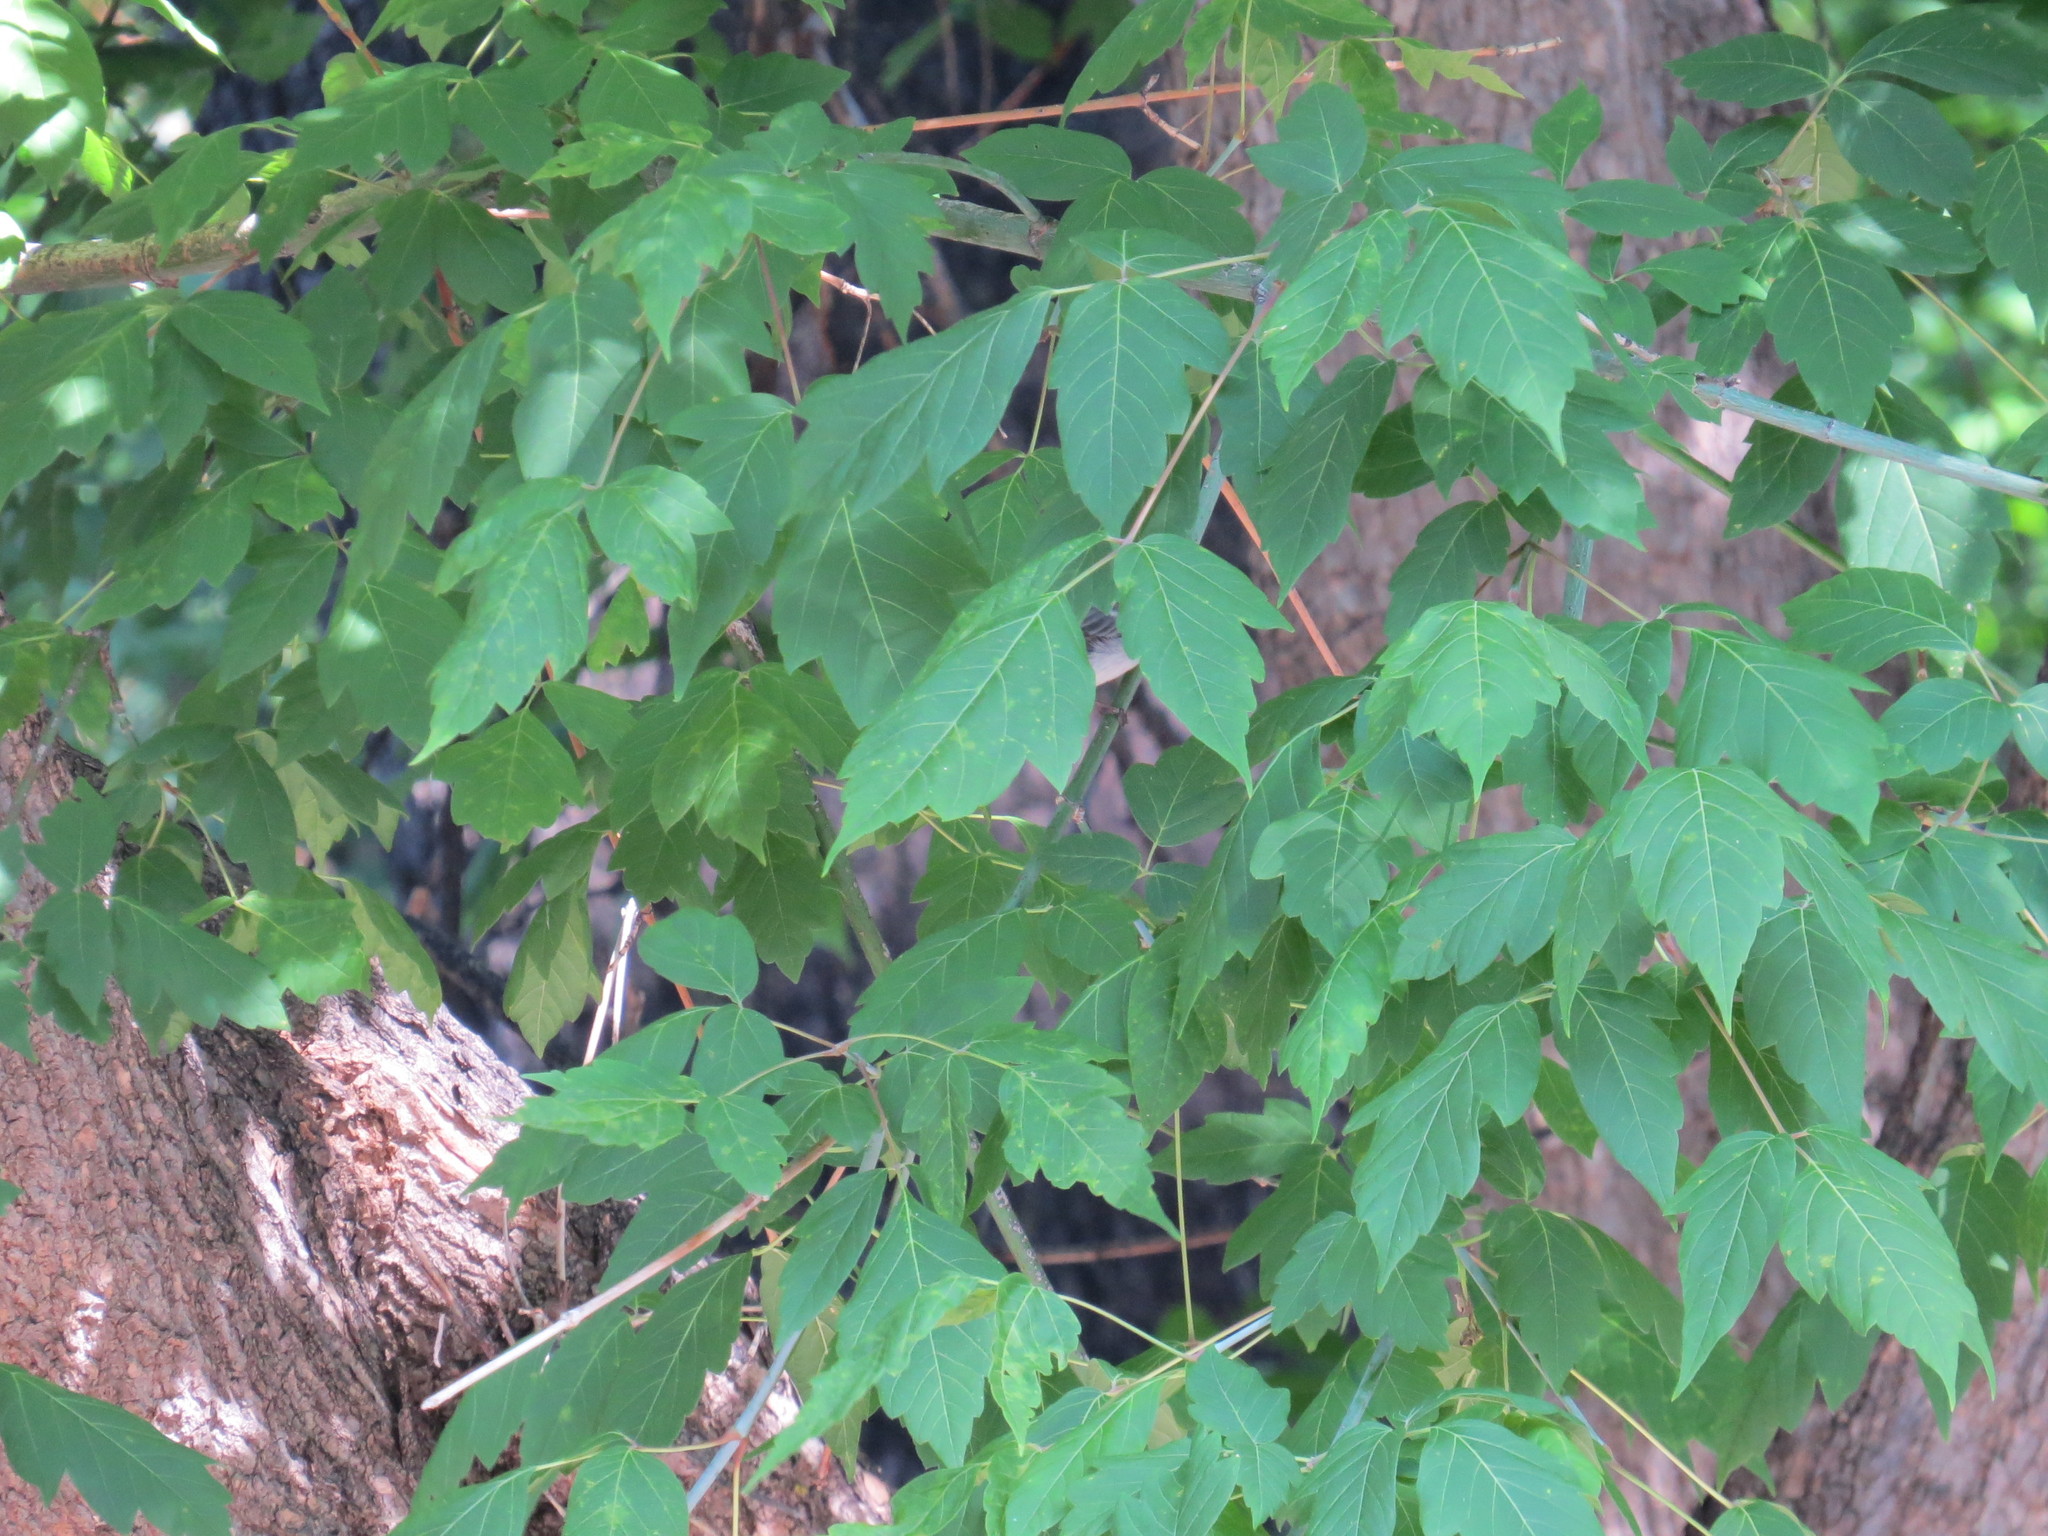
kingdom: Plantae
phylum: Tracheophyta
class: Magnoliopsida
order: Sapindales
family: Sapindaceae
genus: Acer
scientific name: Acer negundo
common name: Ashleaf maple
